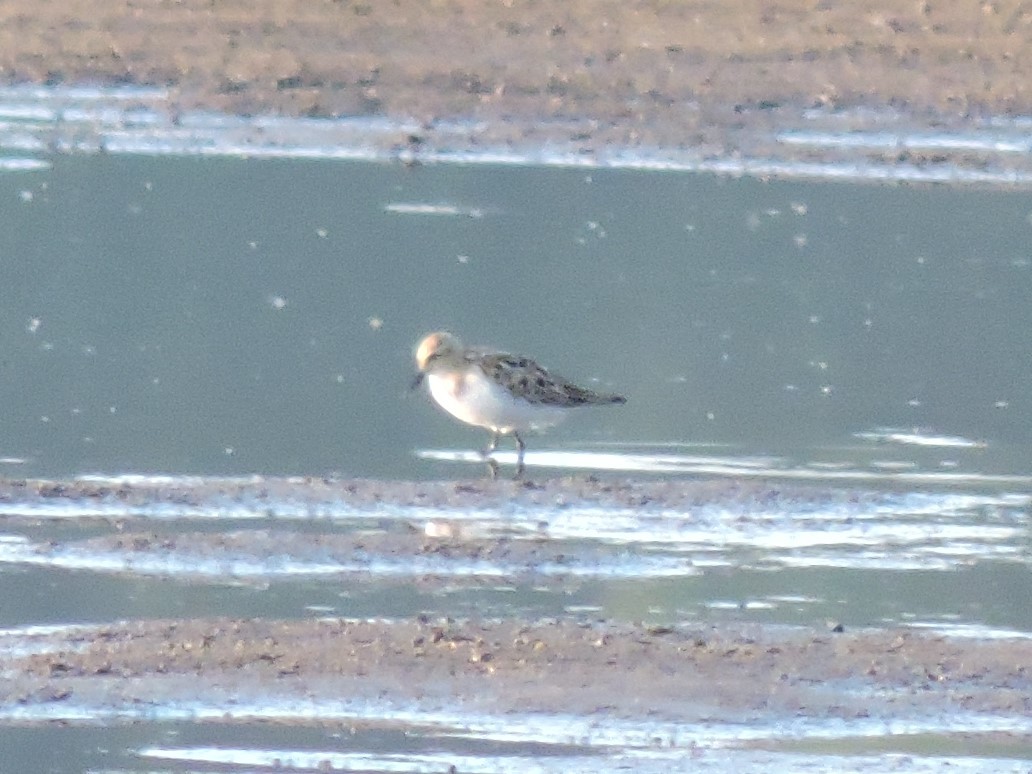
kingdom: Animalia
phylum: Chordata
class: Aves
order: Charadriiformes
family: Scolopacidae
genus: Calidris
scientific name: Calidris temminckii
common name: Temminck's stint
